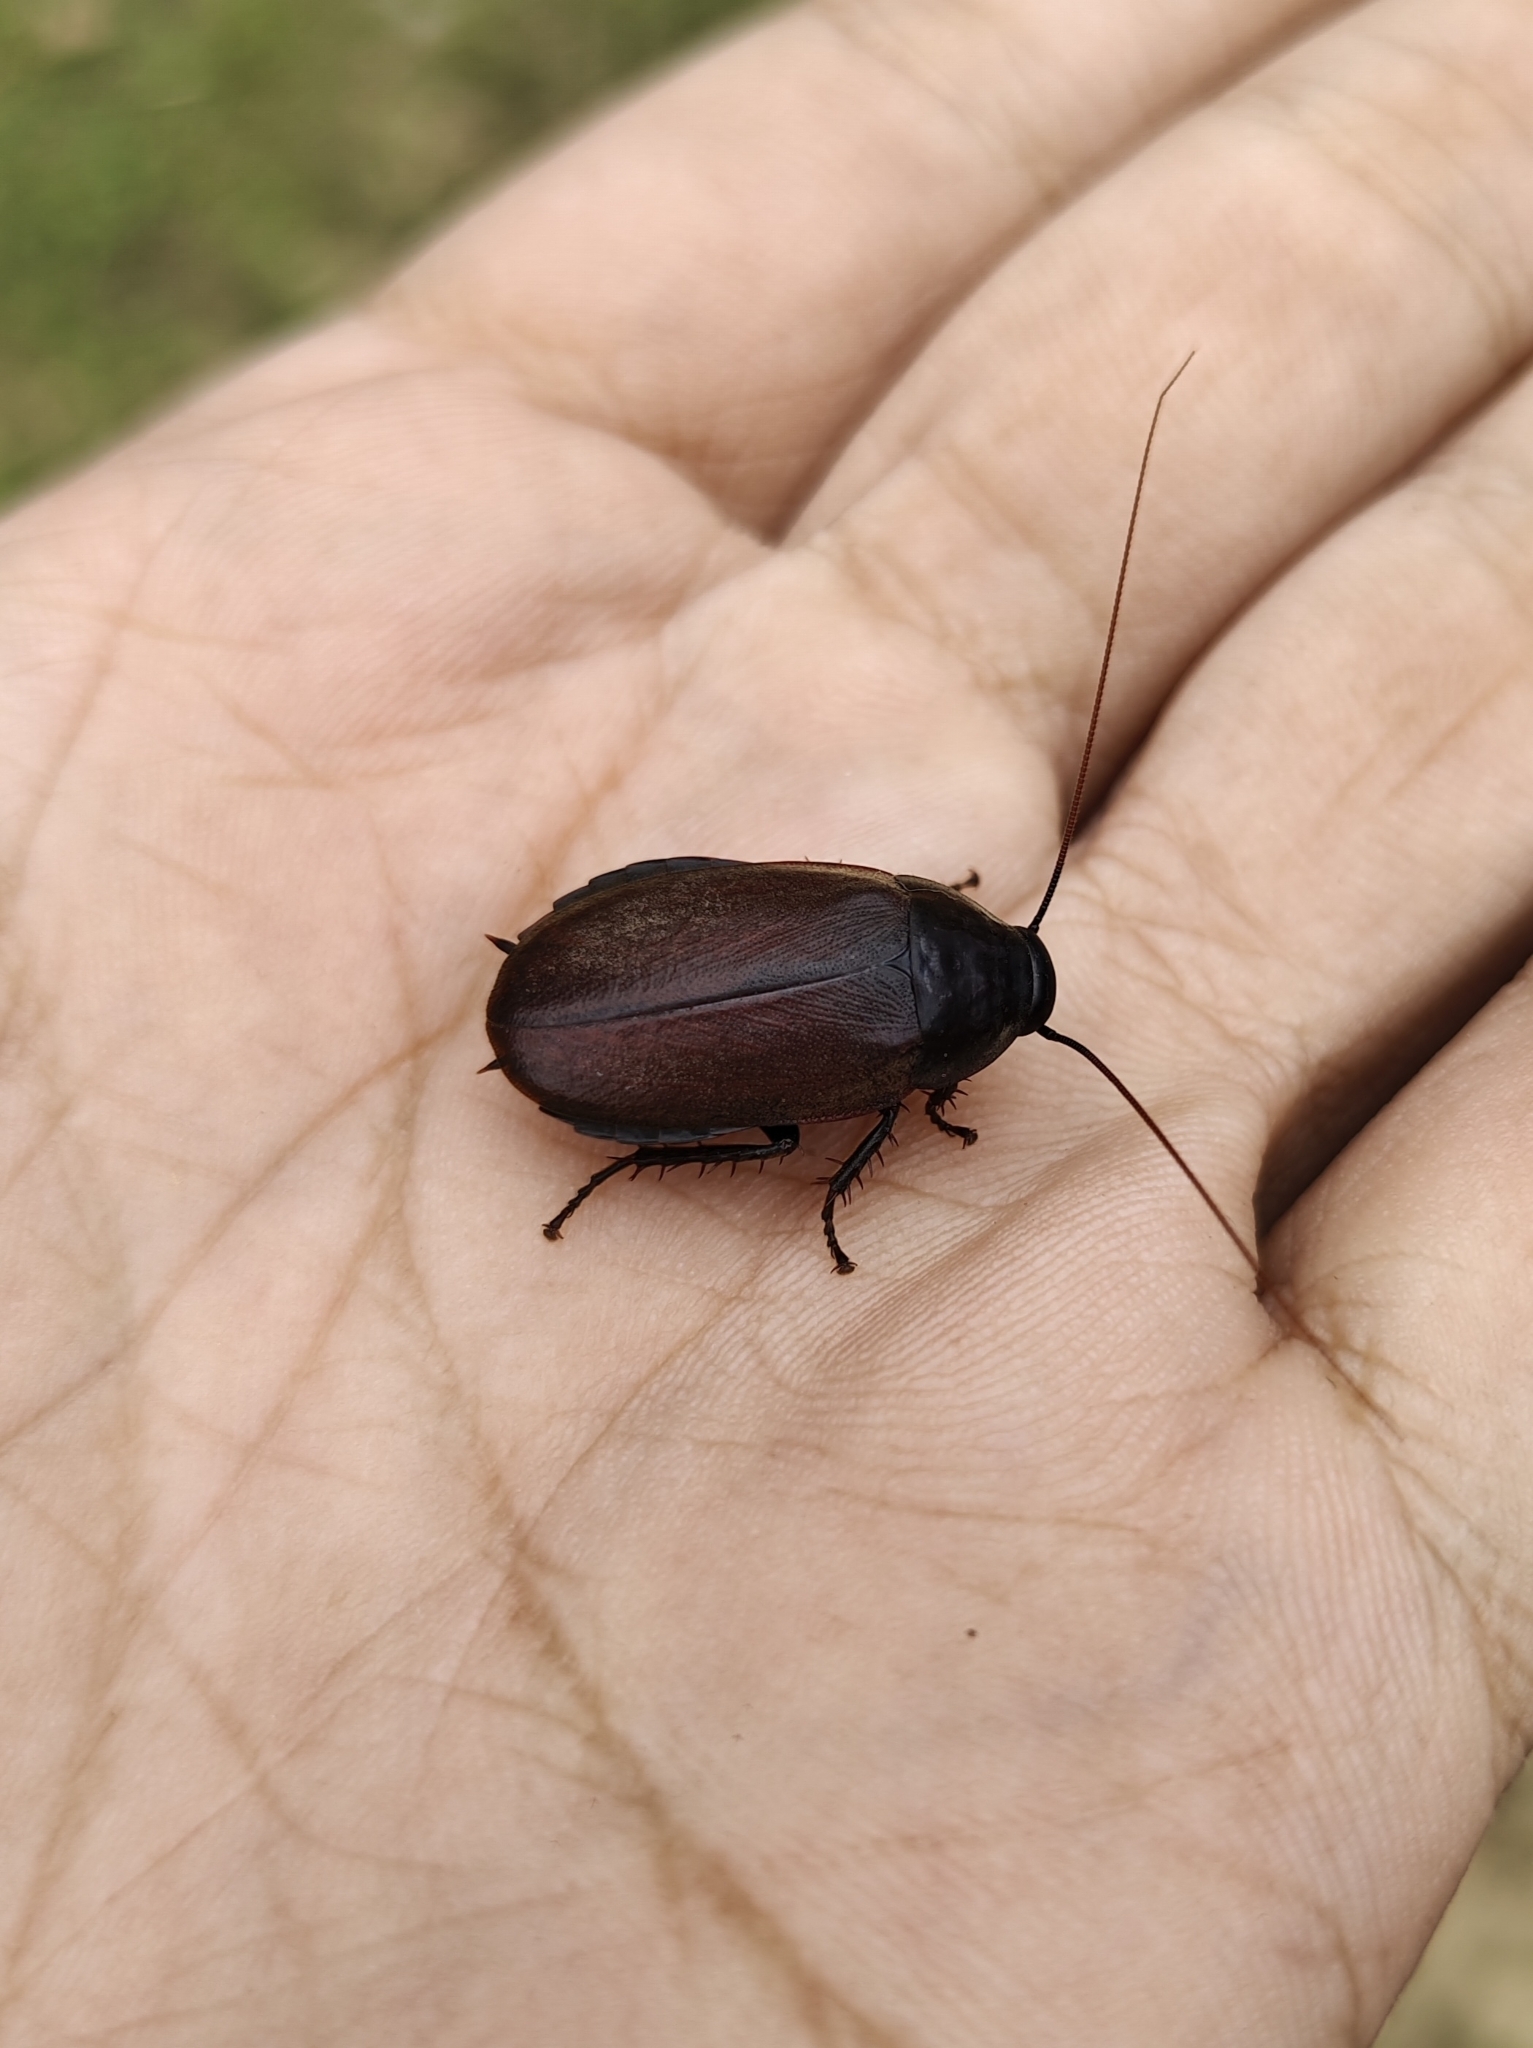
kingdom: Animalia
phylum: Arthropoda
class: Insecta
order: Blattodea
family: Blaberidae
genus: Diploptera
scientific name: Diploptera punctata
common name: Pacific beetle cockroach
